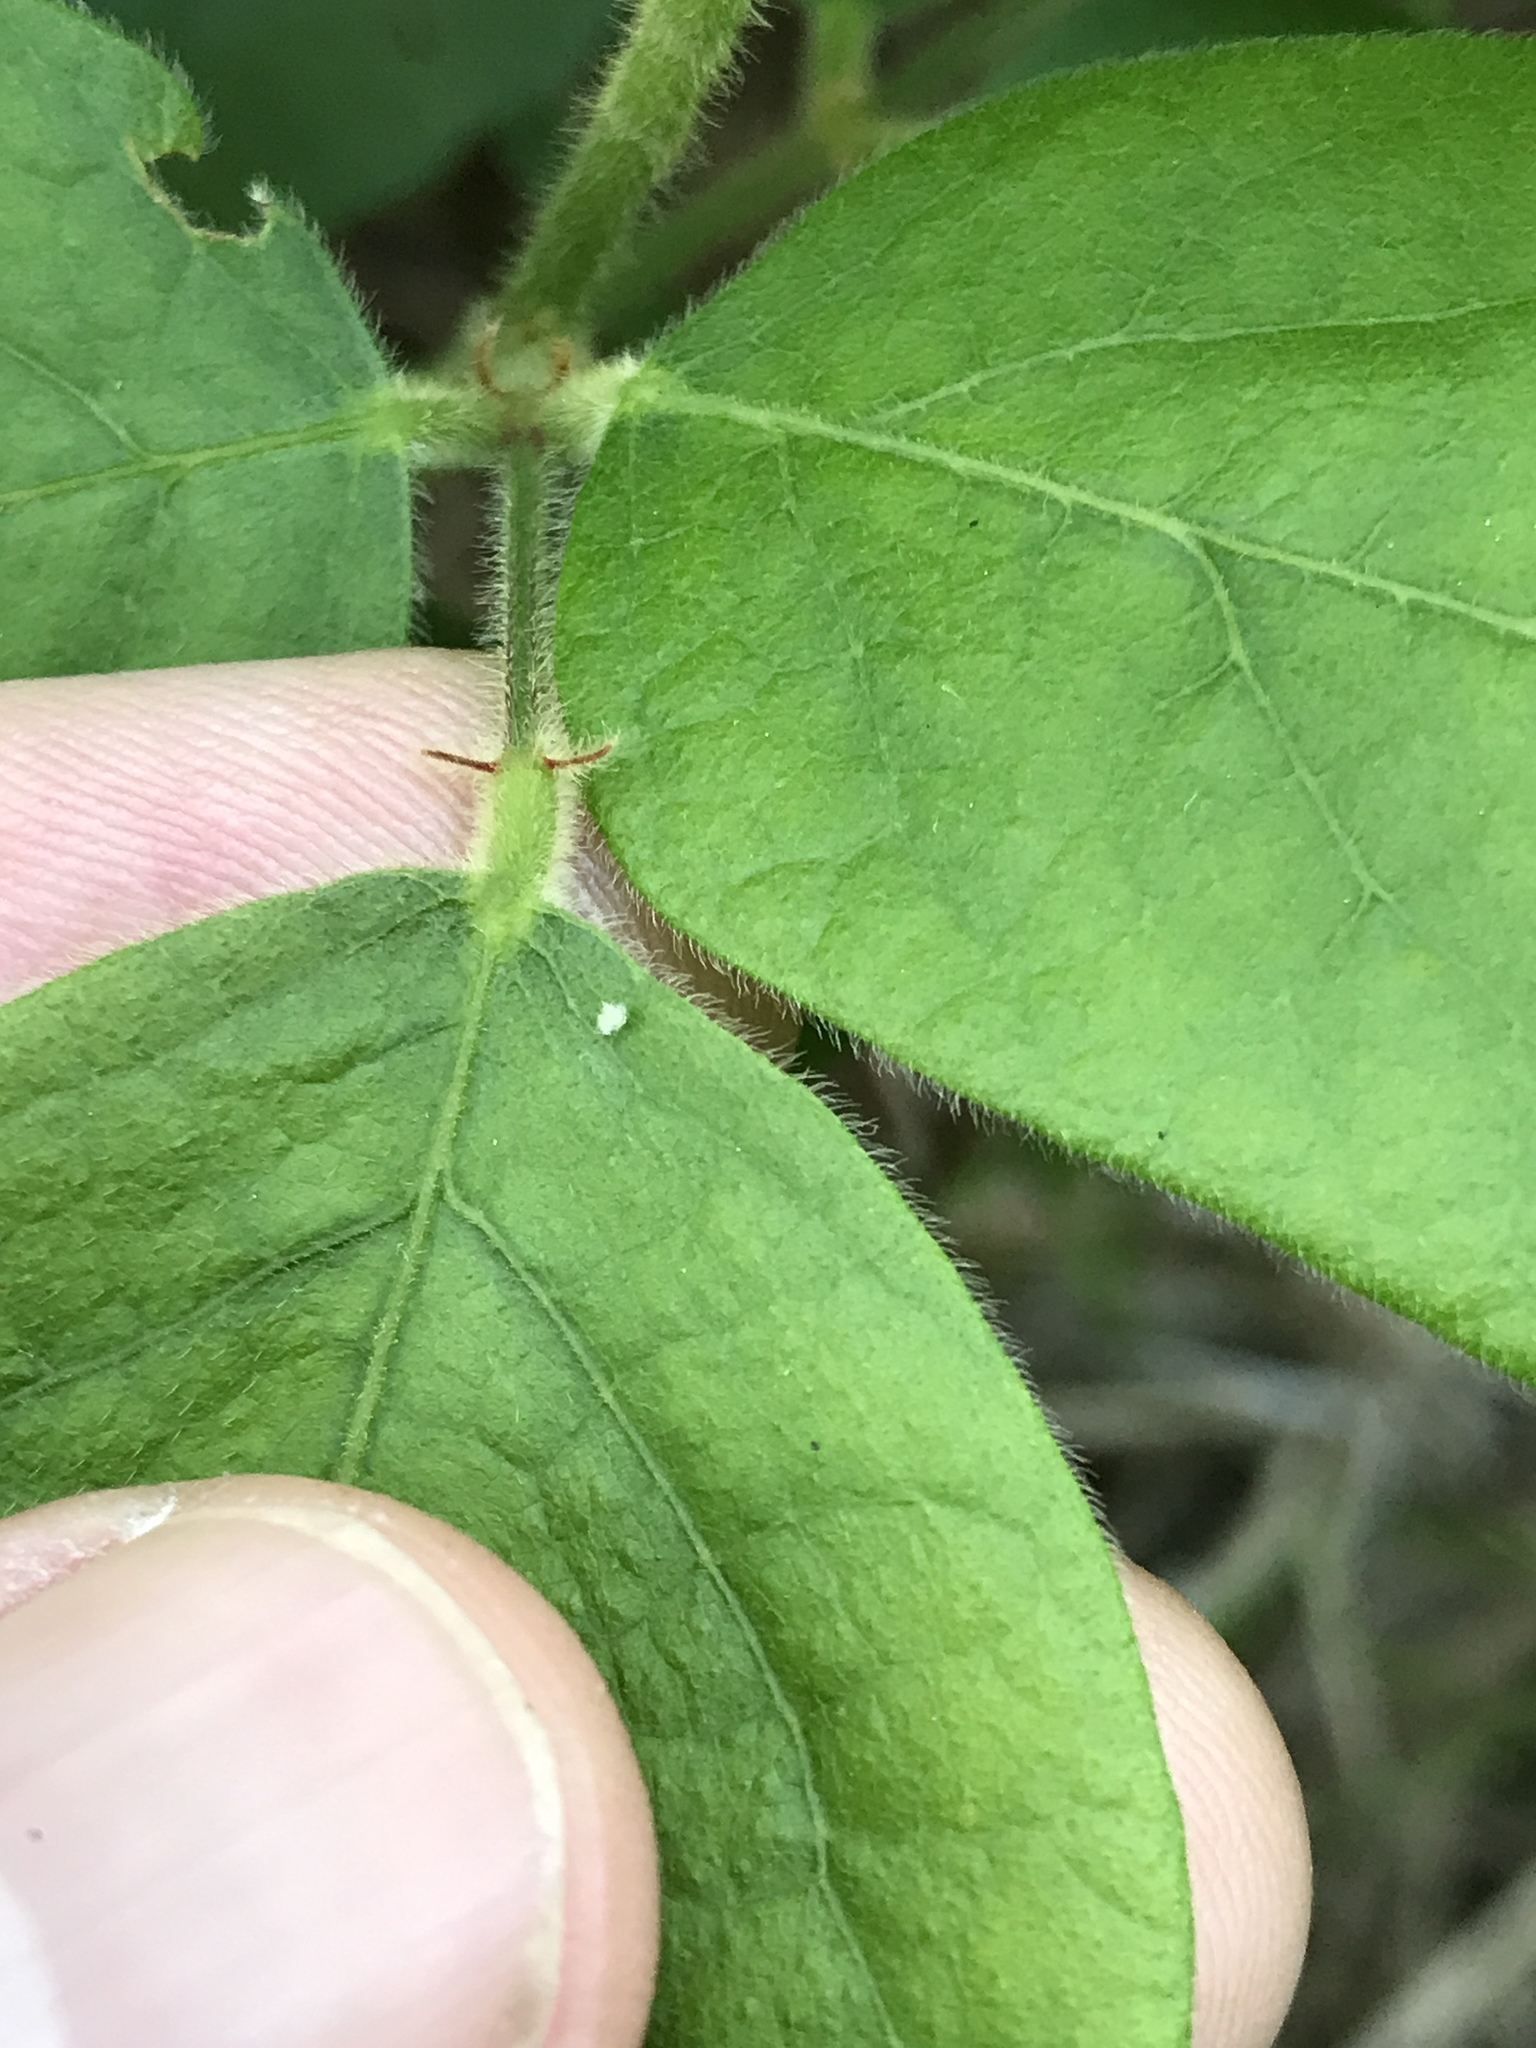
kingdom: Plantae
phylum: Tracheophyta
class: Magnoliopsida
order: Fabales
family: Fabaceae
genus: Desmodium
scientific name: Desmodium viridiflorum
